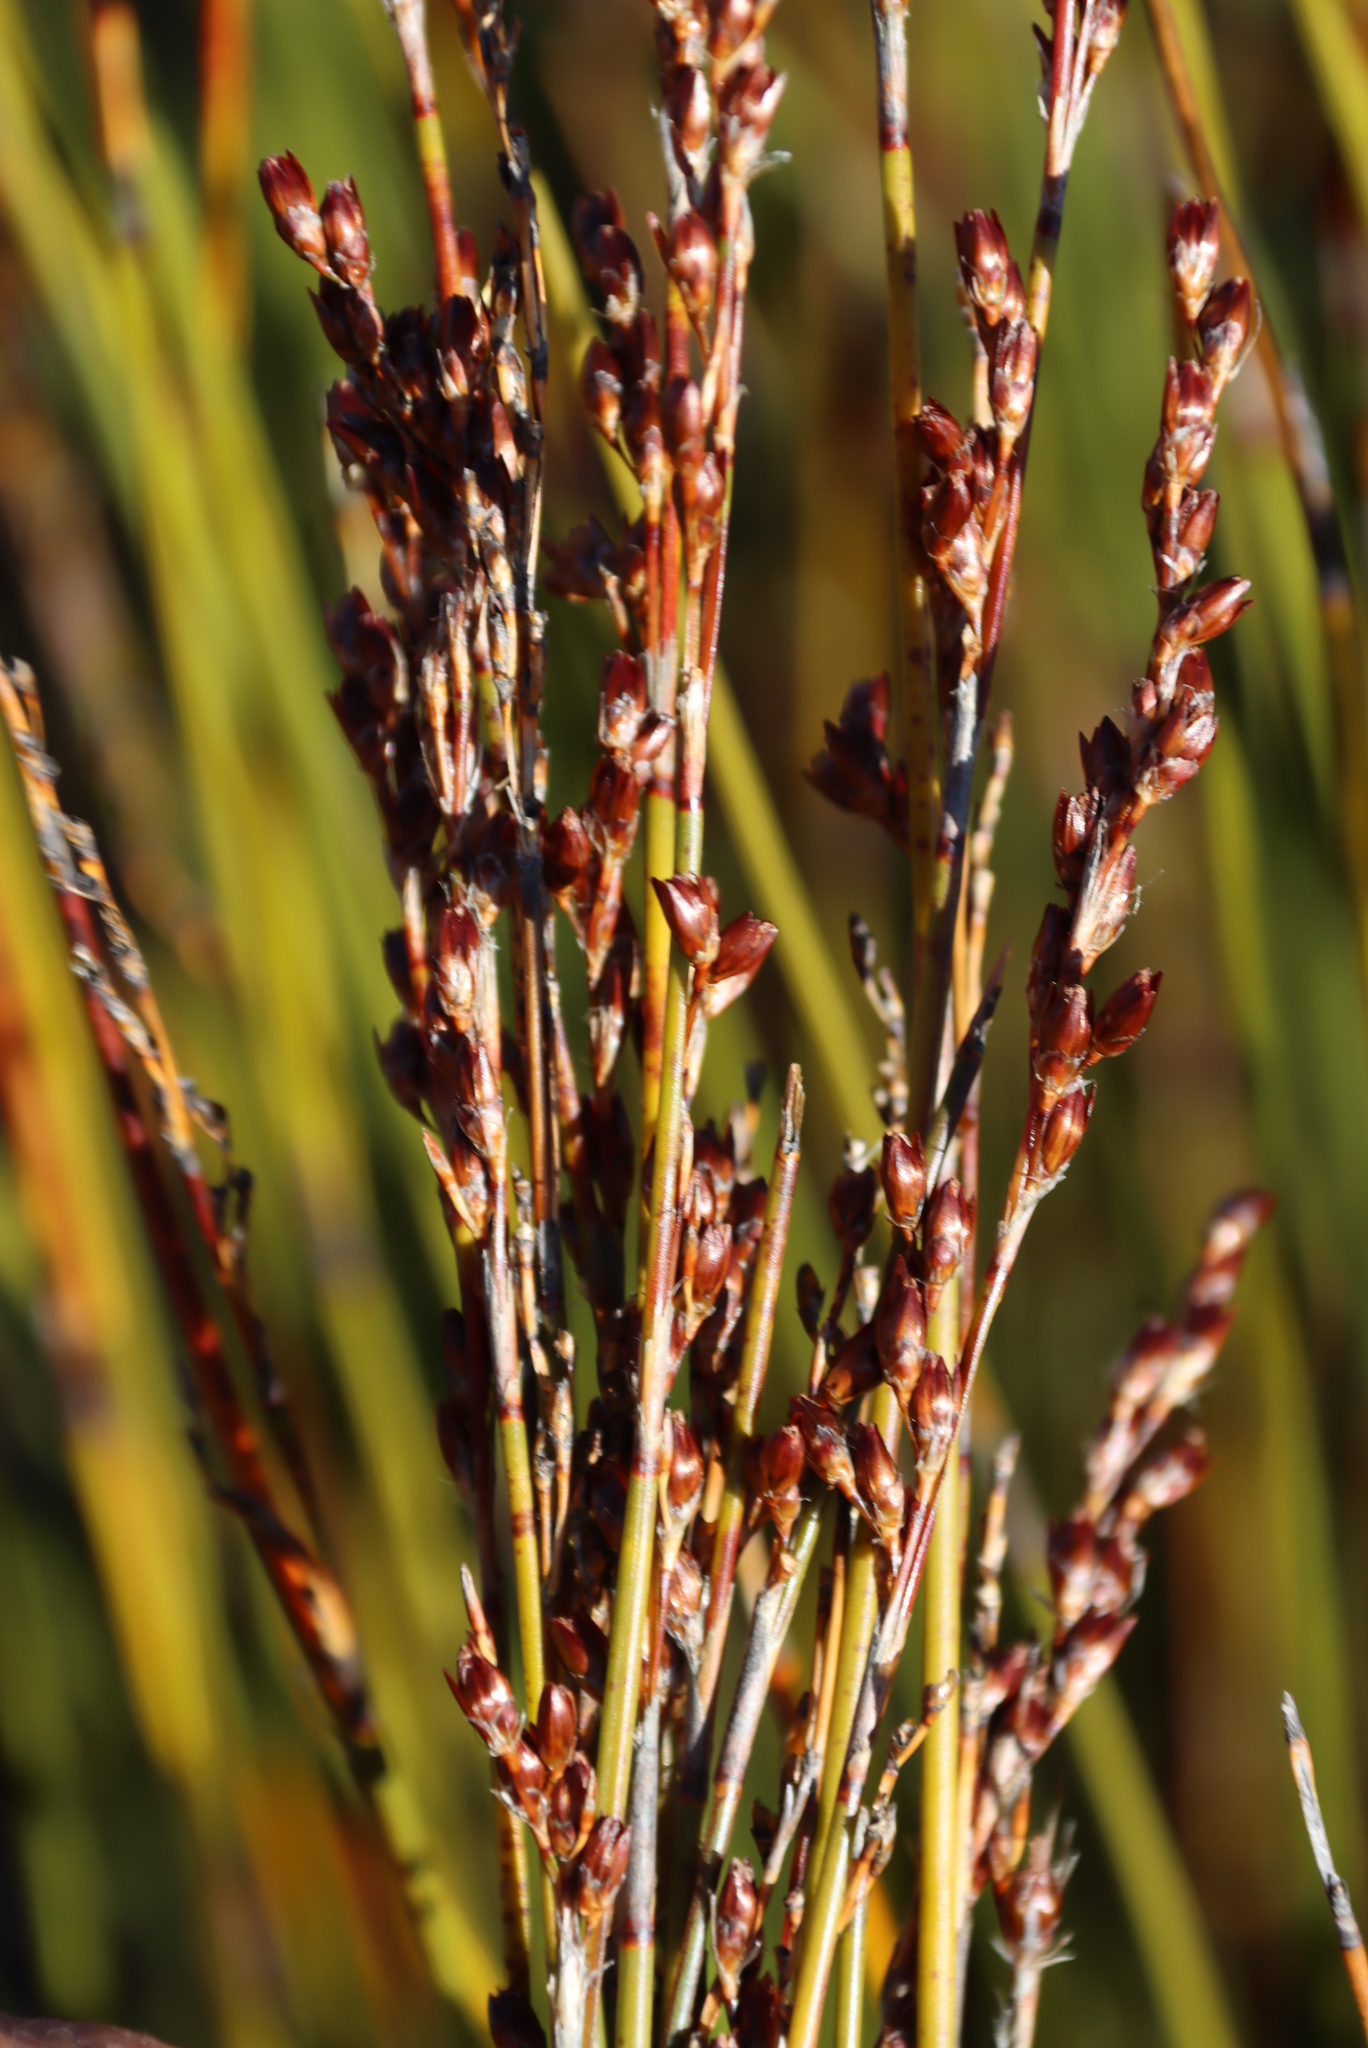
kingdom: Plantae
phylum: Tracheophyta
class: Liliopsida
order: Poales
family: Restionaceae
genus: Rhodocoma
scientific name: Rhodocoma fruticosa
